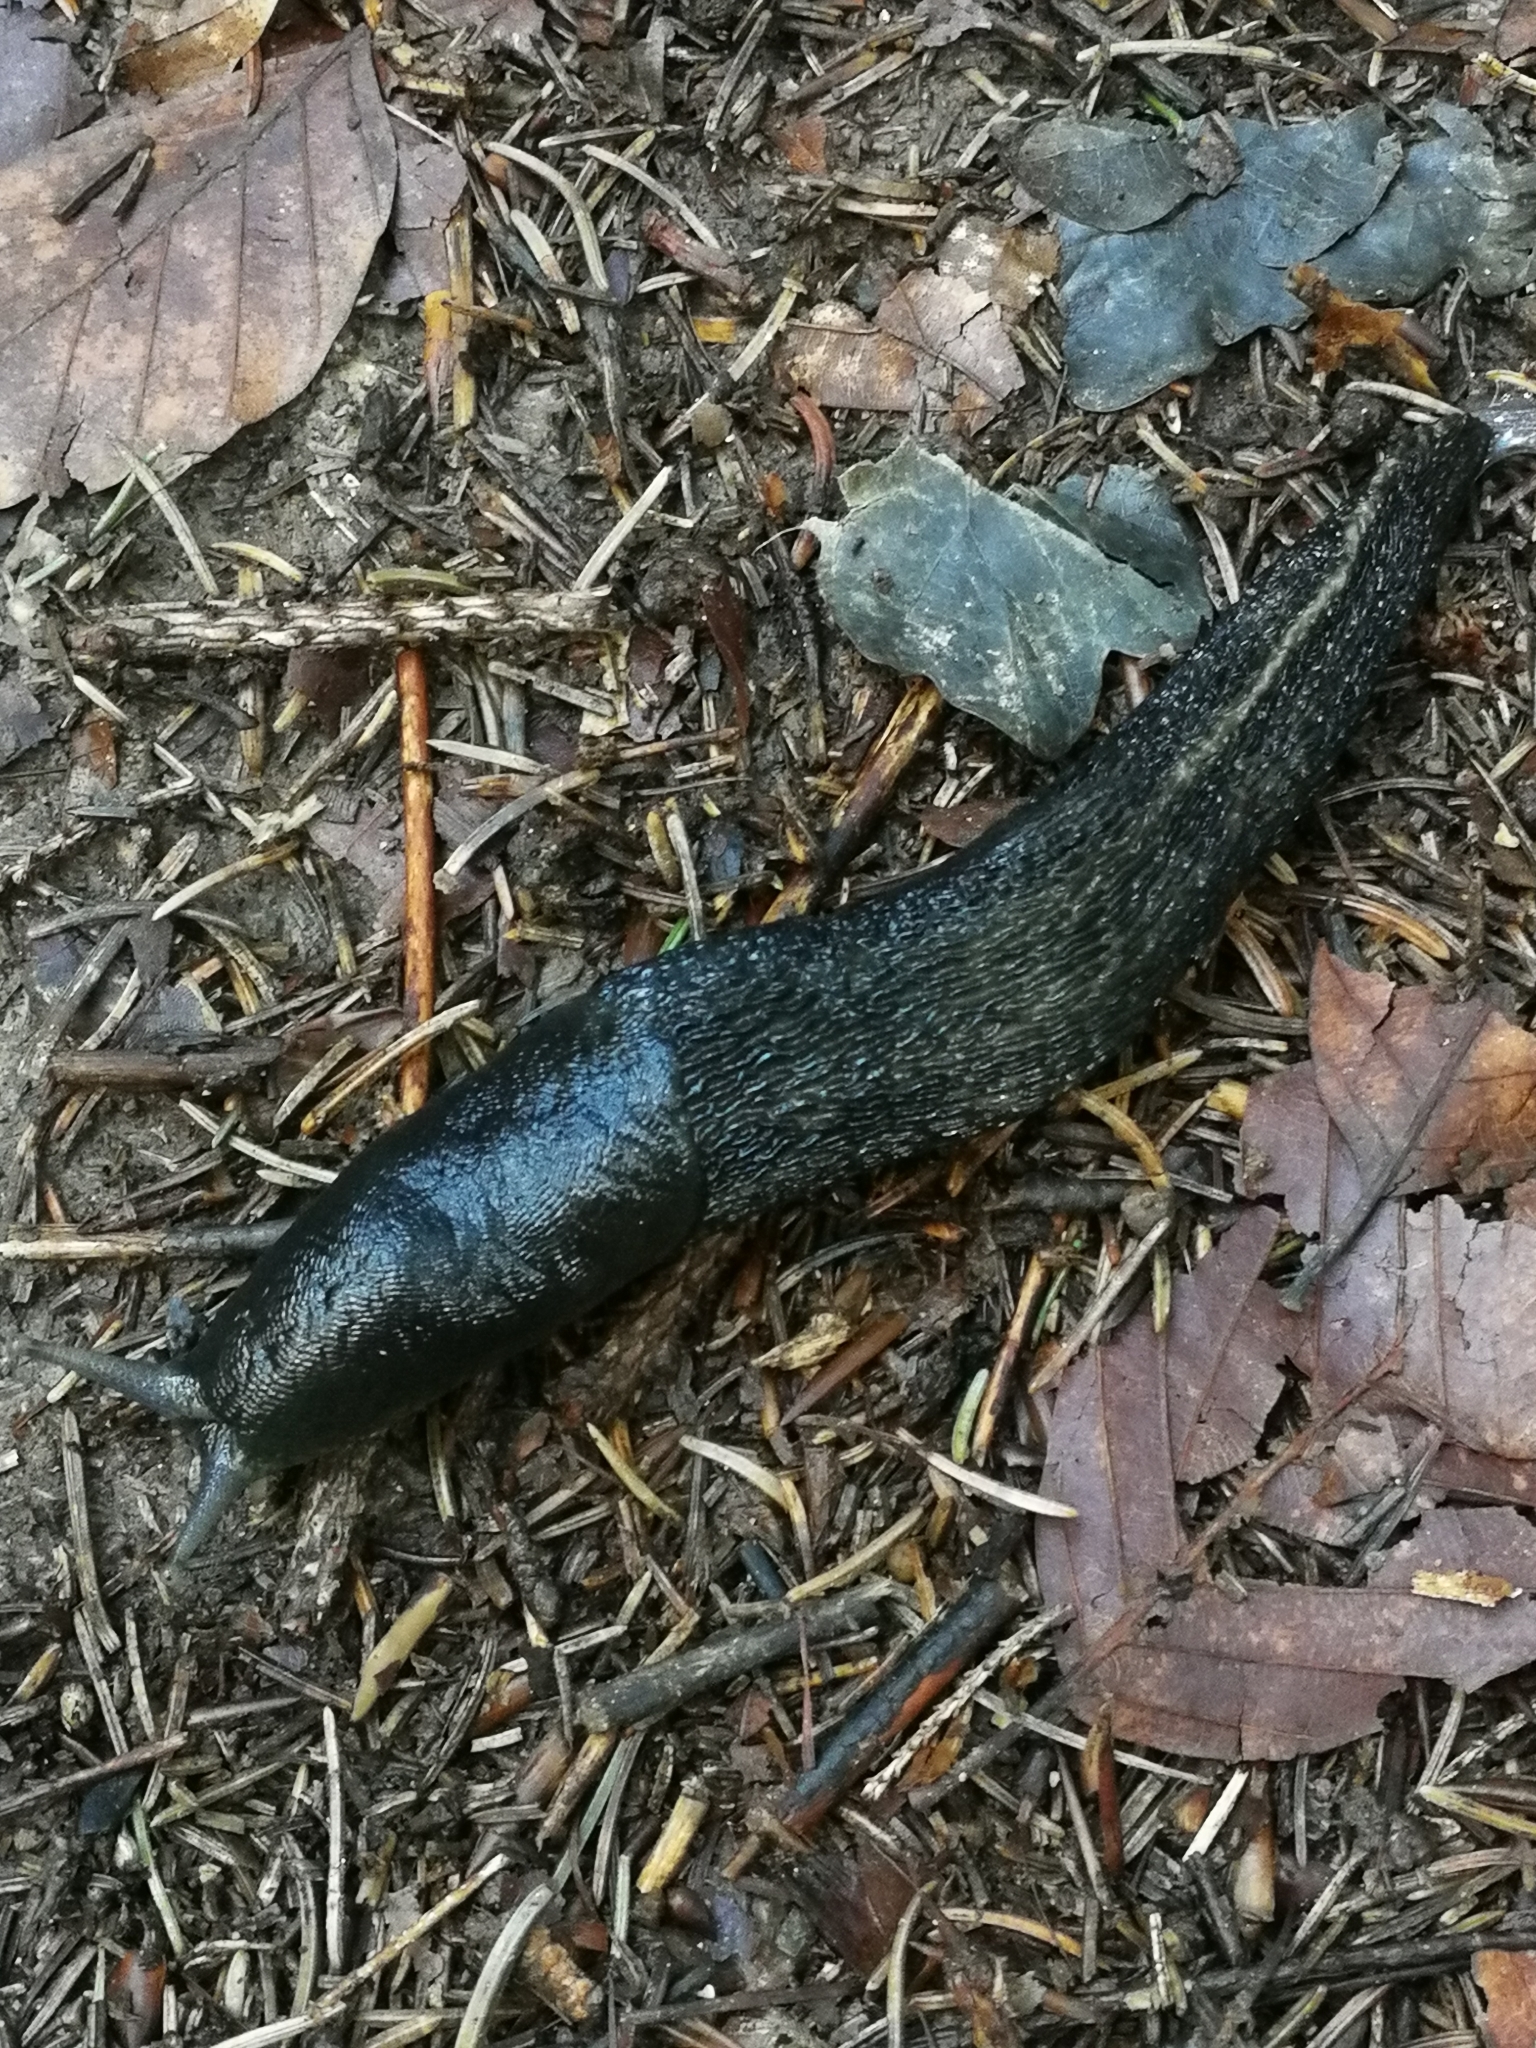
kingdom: Animalia
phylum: Mollusca
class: Gastropoda
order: Stylommatophora
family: Limacidae
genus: Limax
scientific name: Limax cinereoniger
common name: Ash-black slug
